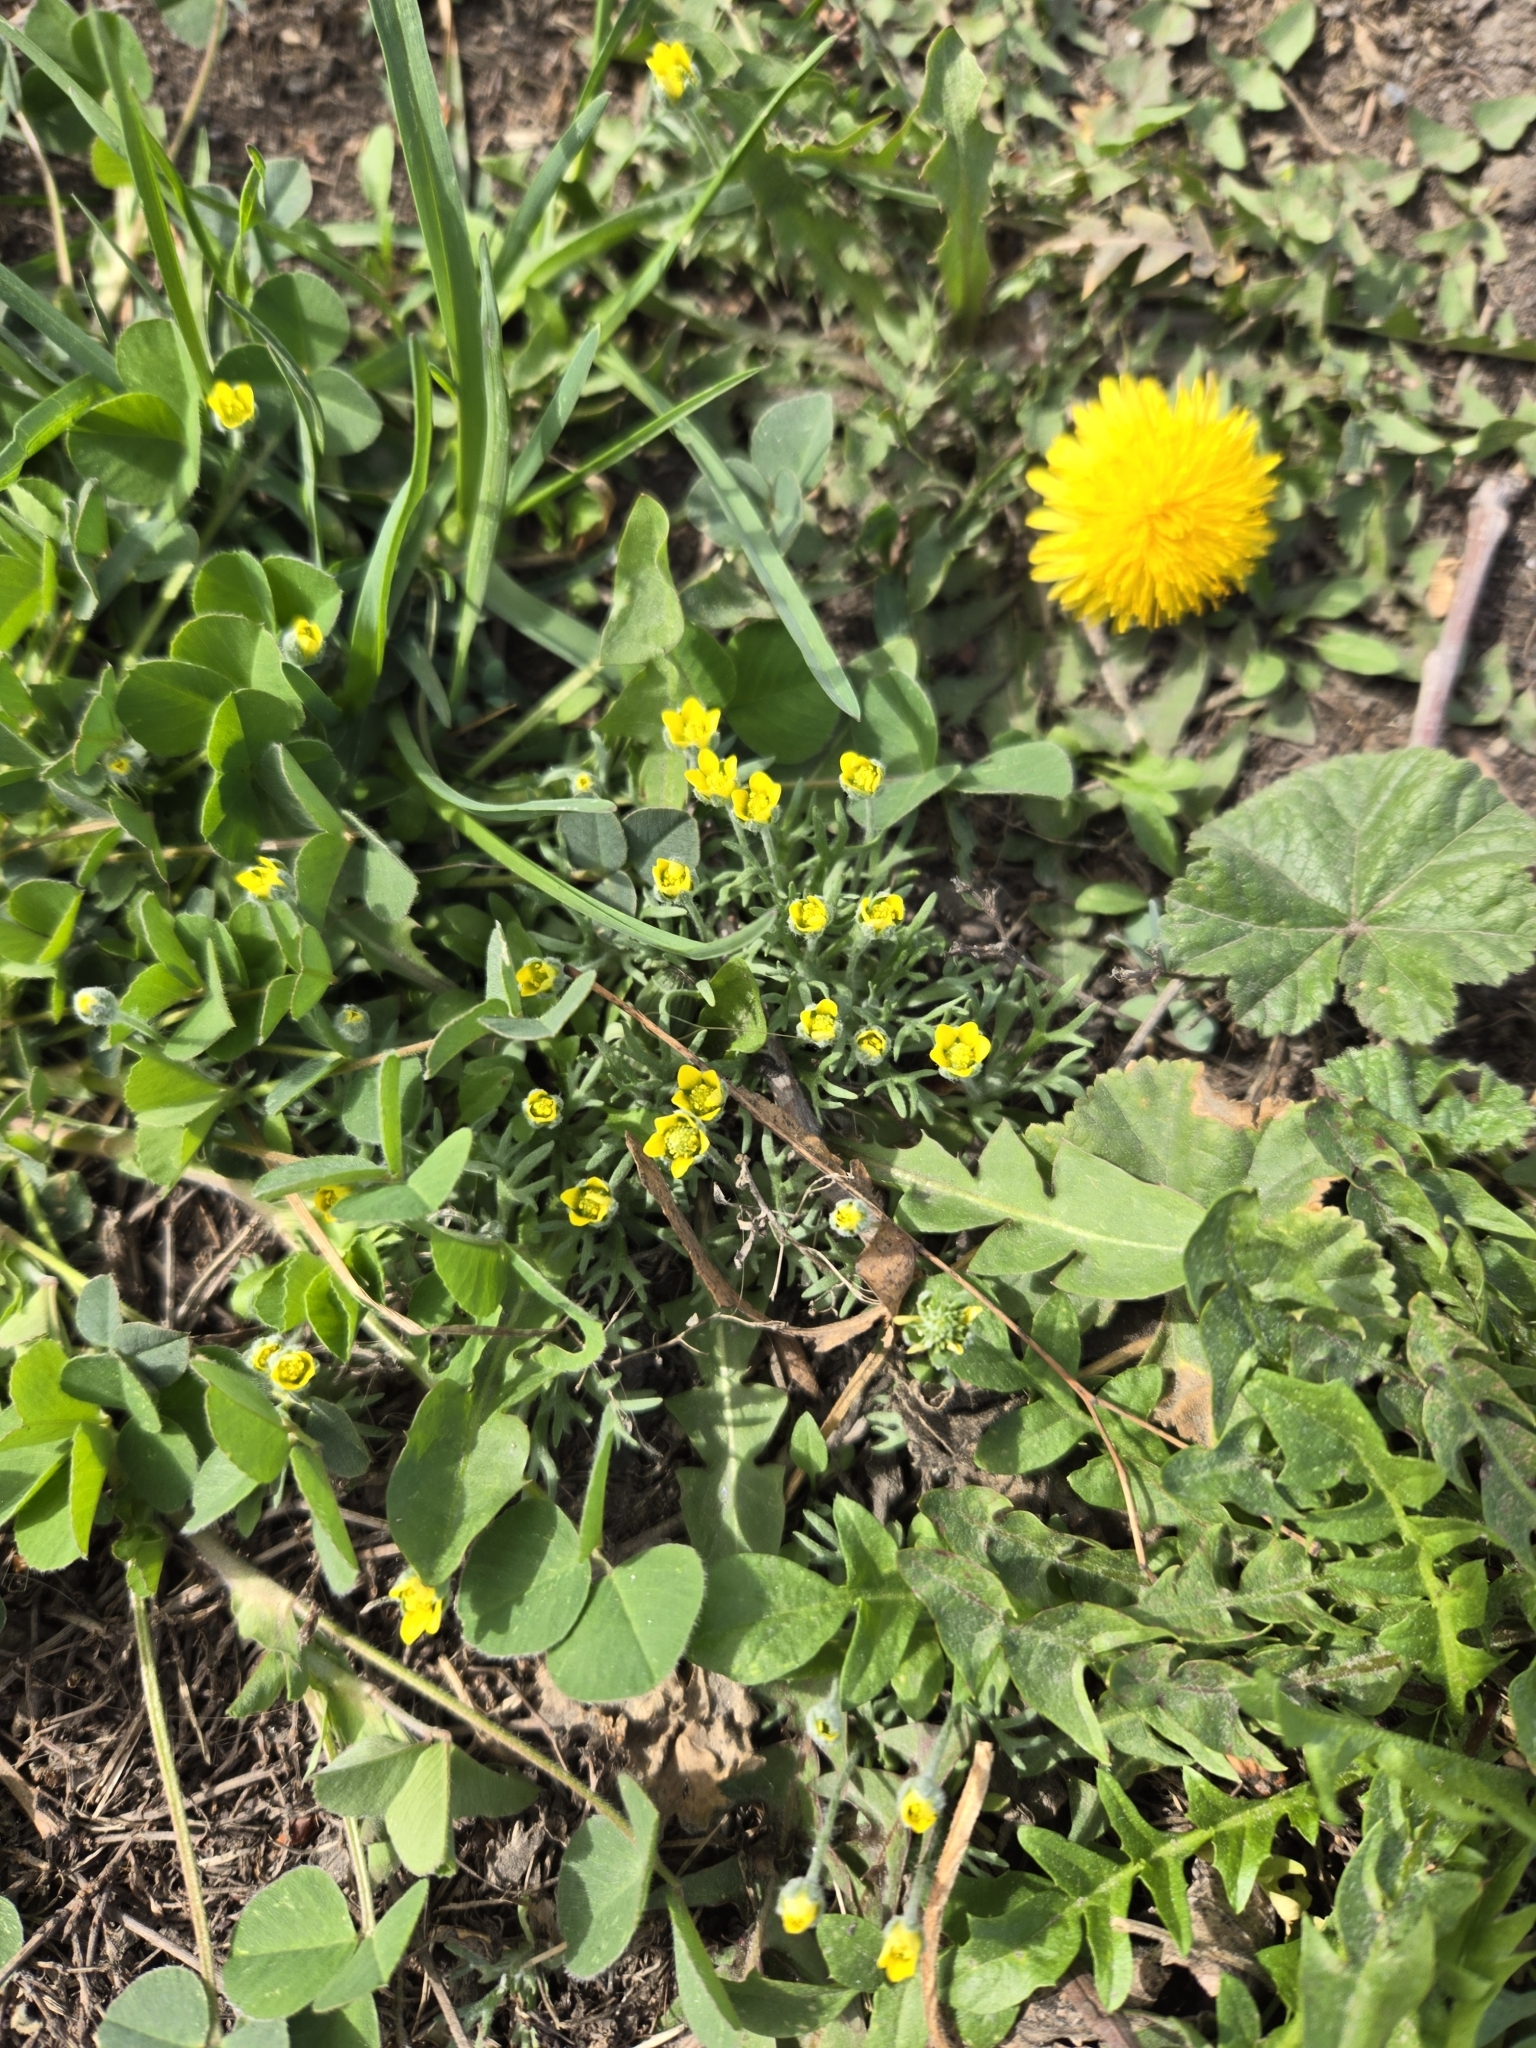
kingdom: Plantae
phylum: Tracheophyta
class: Magnoliopsida
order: Ranunculales
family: Ranunculaceae
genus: Ceratocephala
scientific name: Ceratocephala orthoceras
